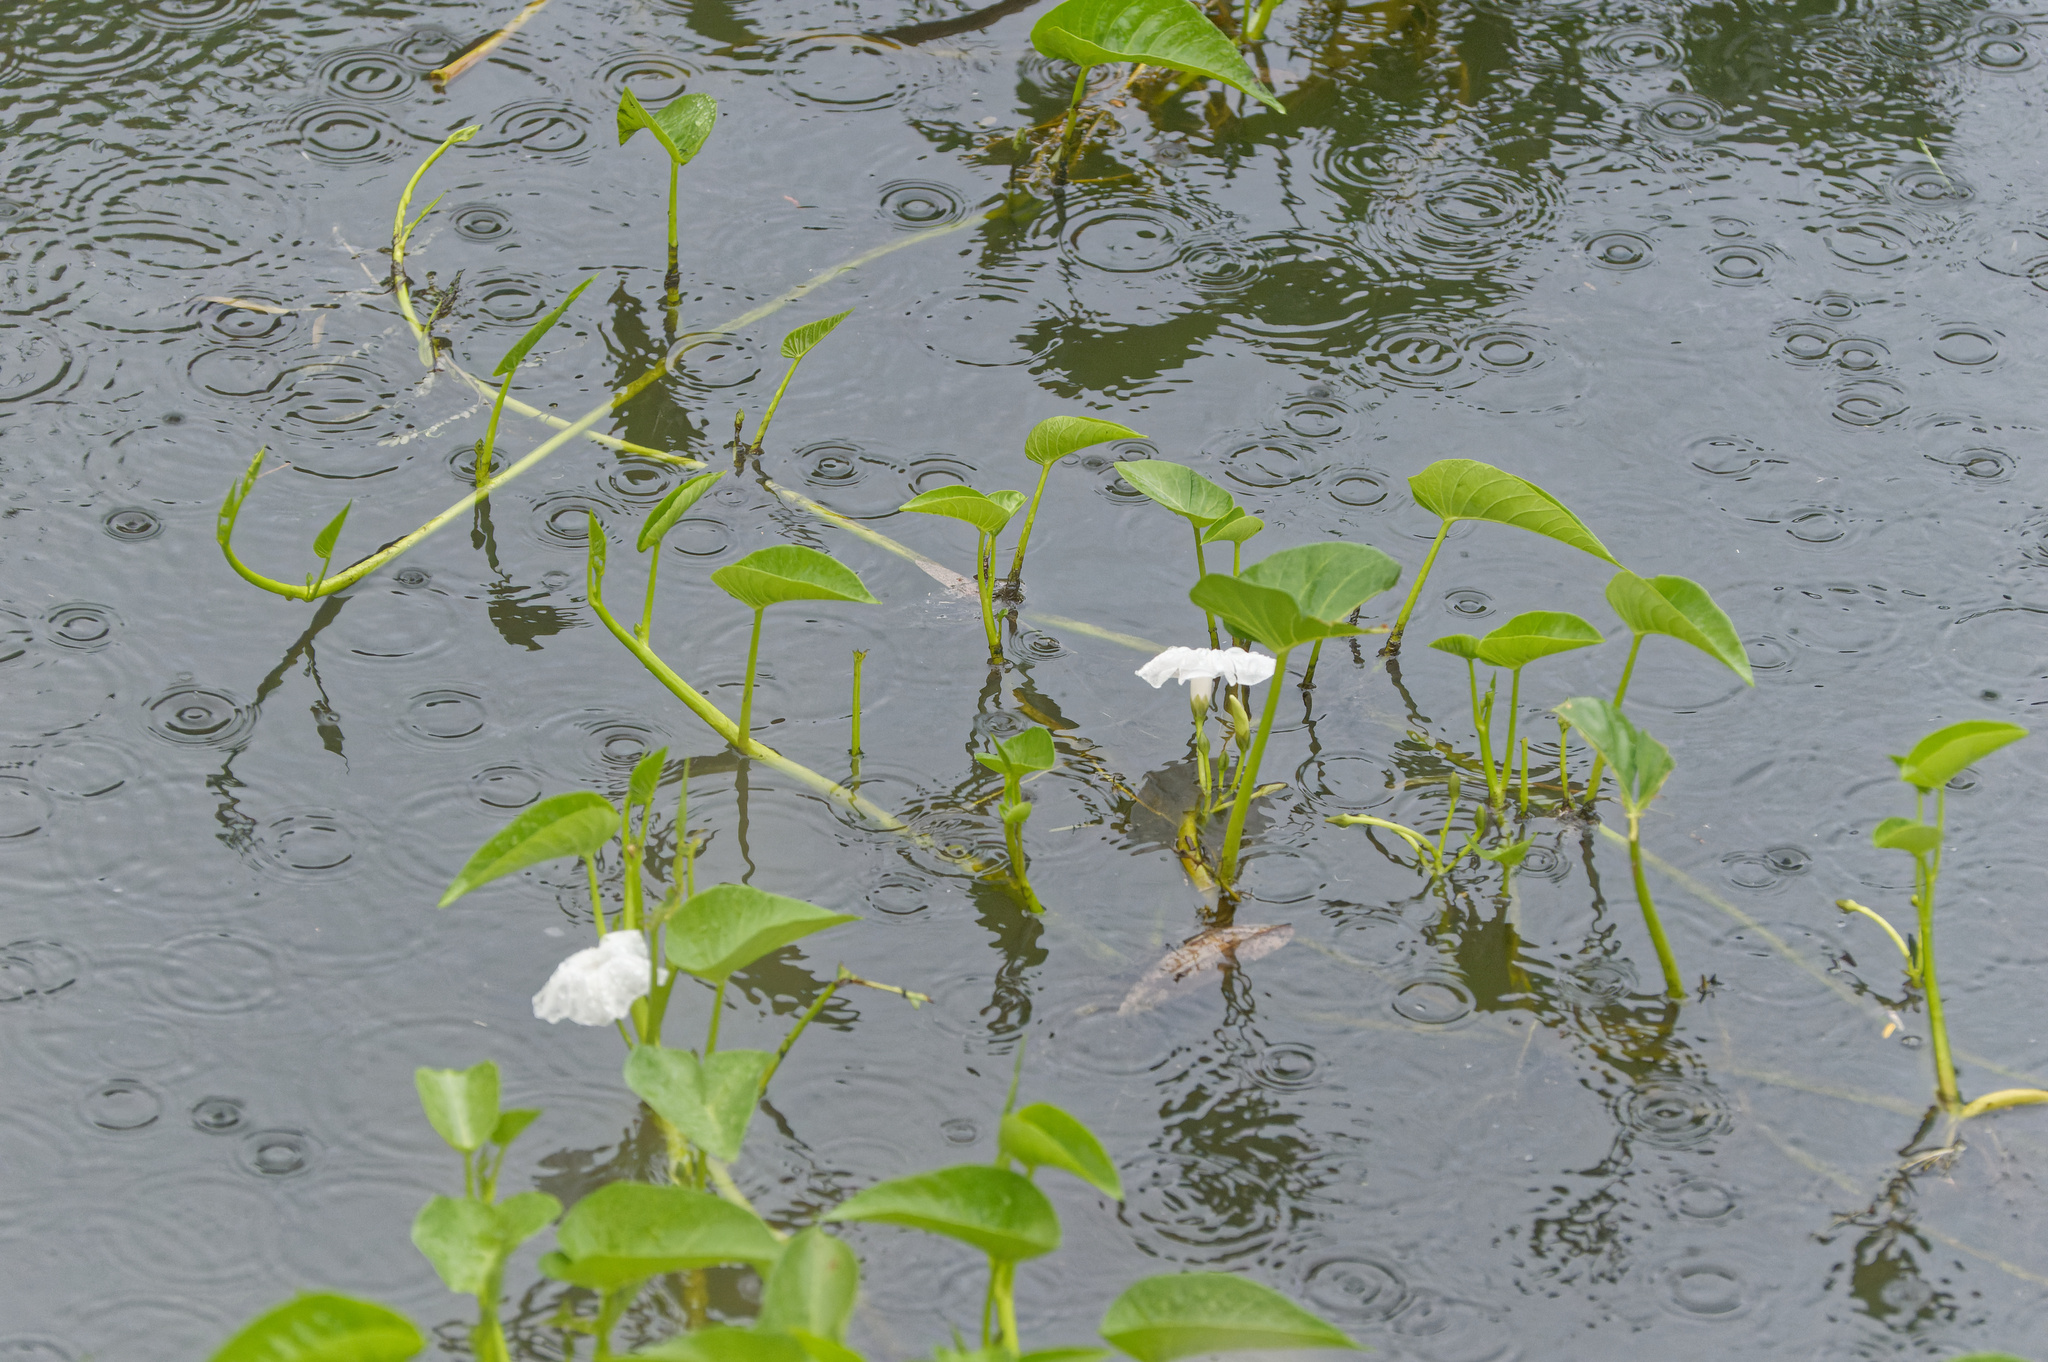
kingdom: Plantae
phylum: Tracheophyta
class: Magnoliopsida
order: Solanales
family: Convolvulaceae
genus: Ipomoea
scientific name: Ipomoea aquatica
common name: Swamp morning-glory
